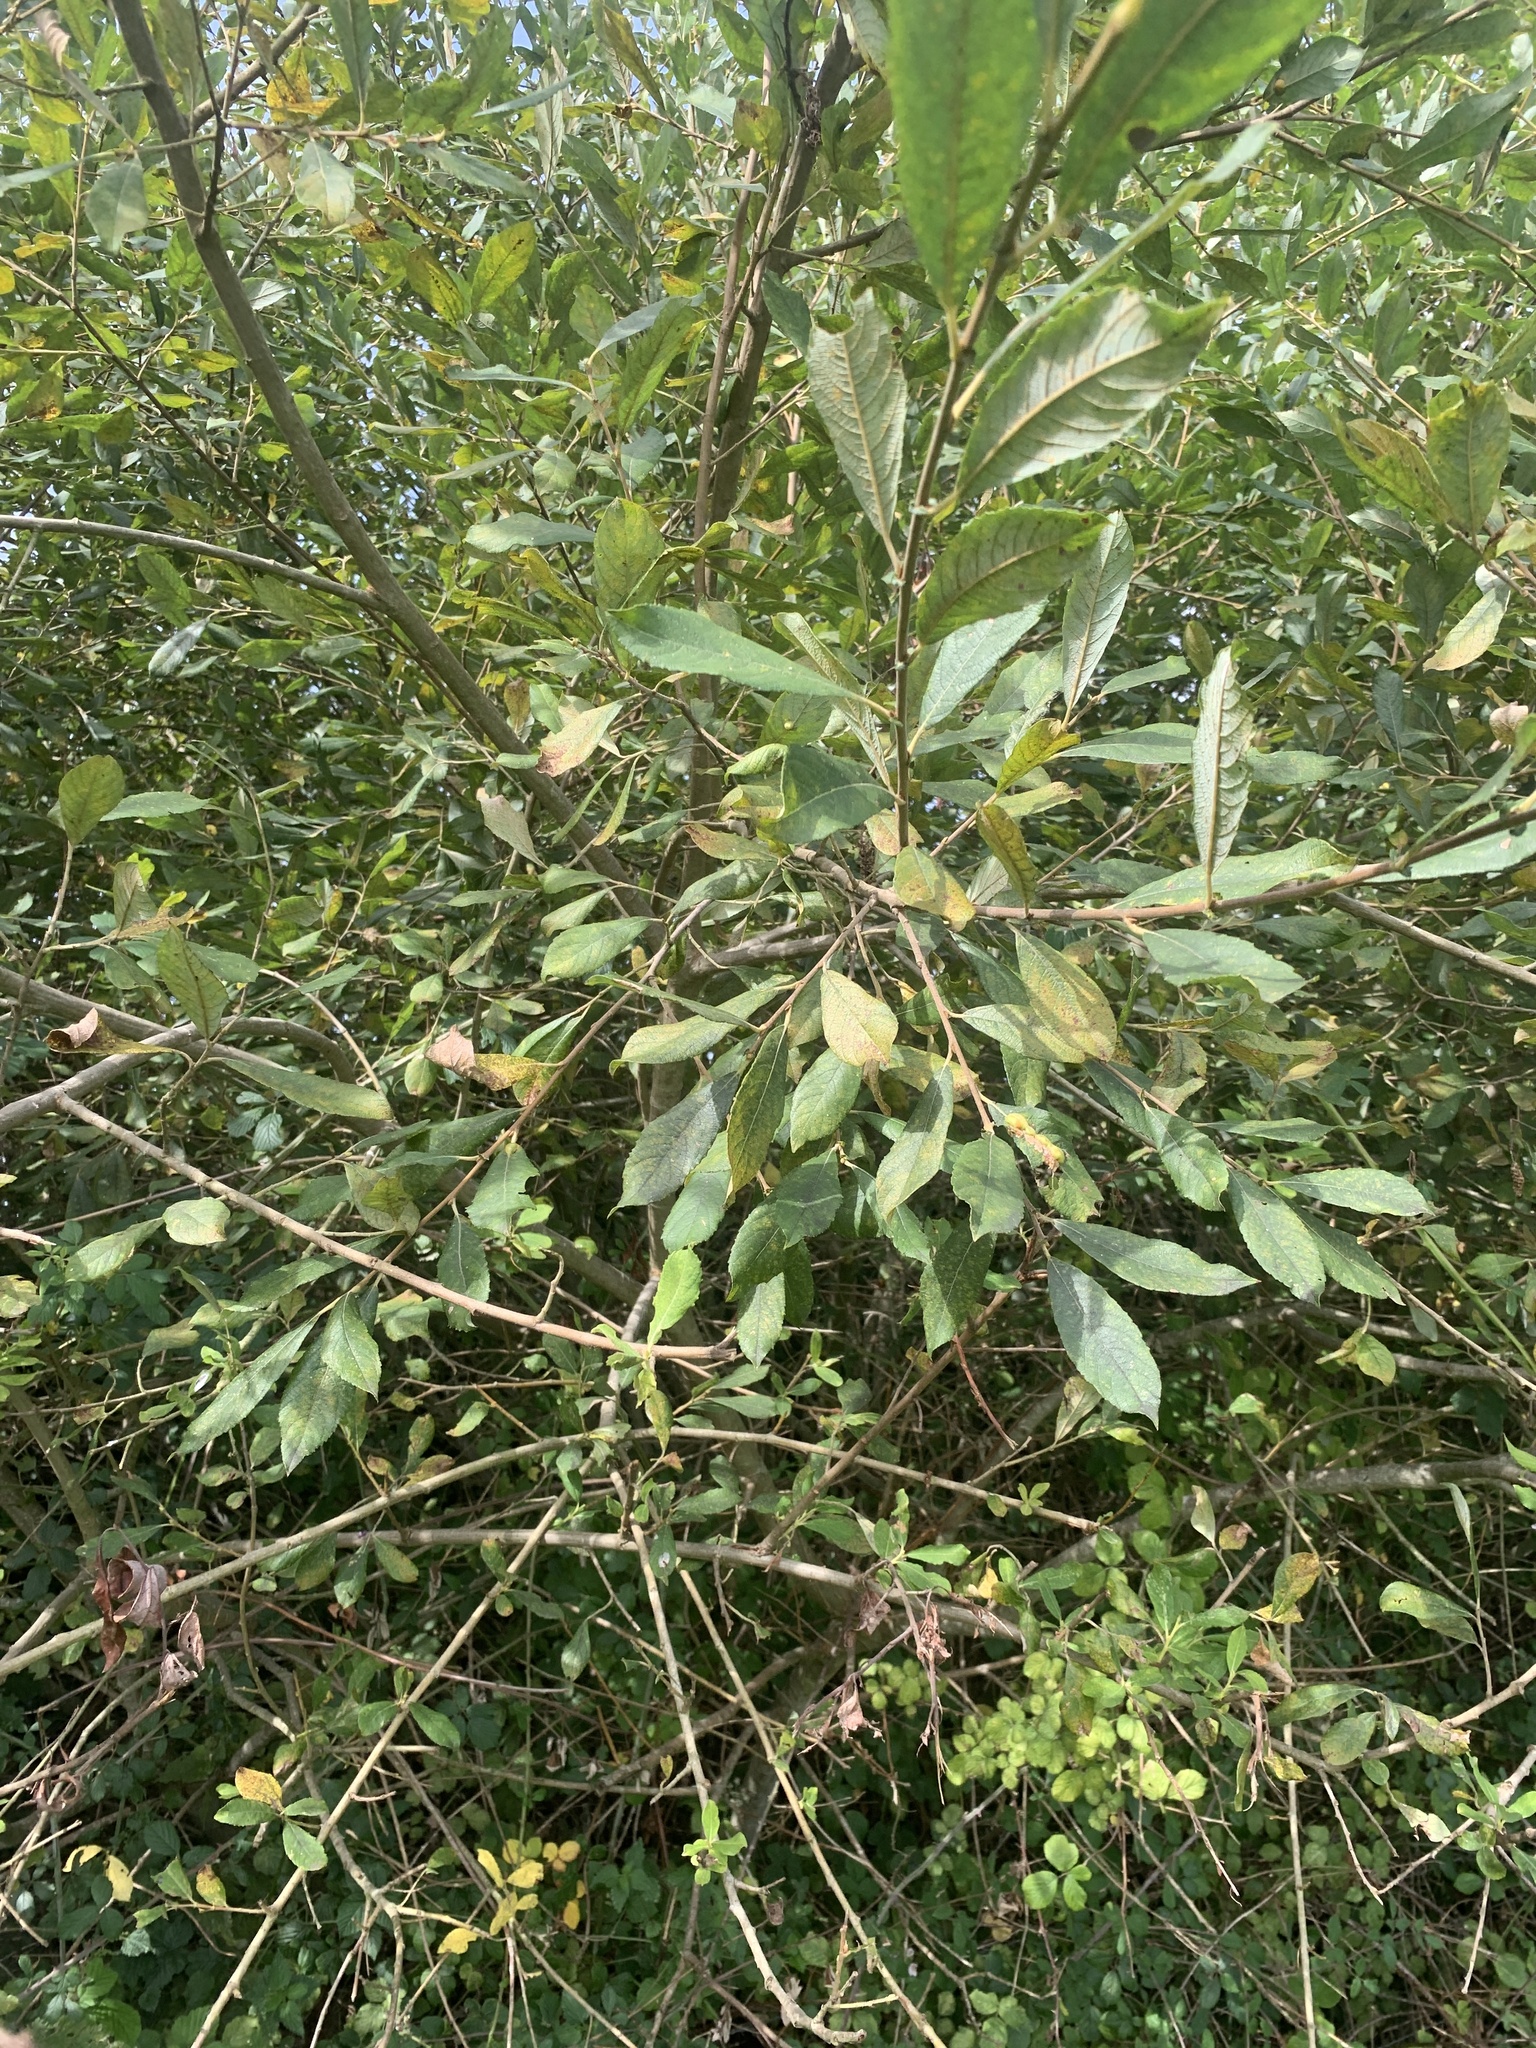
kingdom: Plantae
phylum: Tracheophyta
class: Magnoliopsida
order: Malpighiales
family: Salicaceae
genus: Salix
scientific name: Salix atrocinerea
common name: Rusty willow
